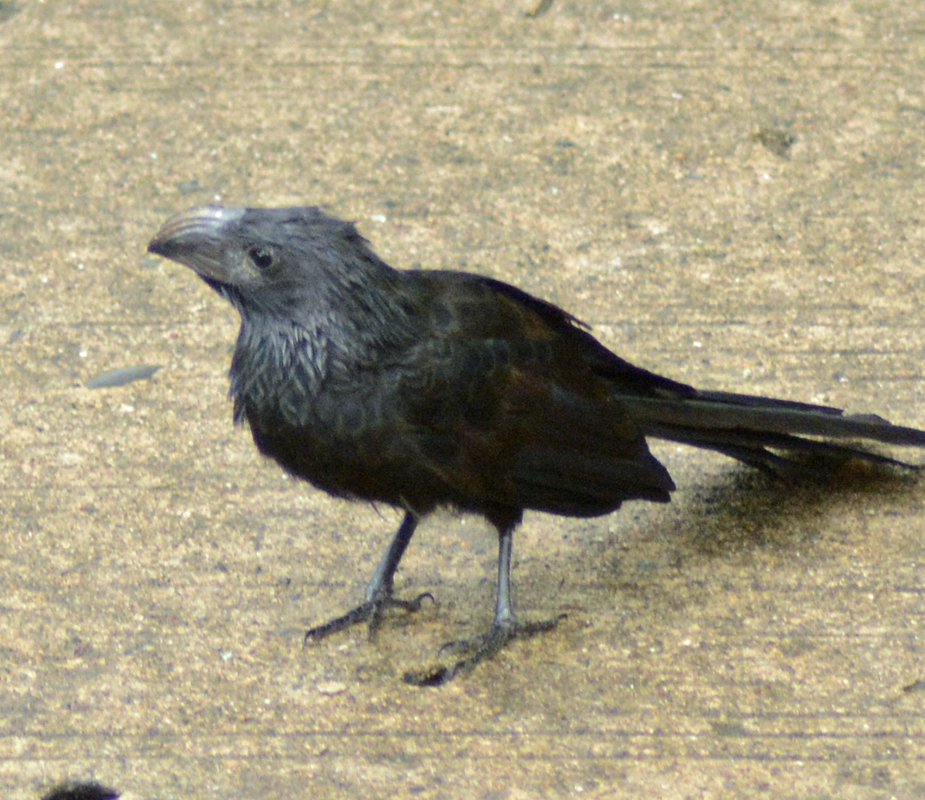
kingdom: Animalia
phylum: Chordata
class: Aves
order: Cuculiformes
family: Cuculidae
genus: Crotophaga
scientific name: Crotophaga sulcirostris
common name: Groove-billed ani
